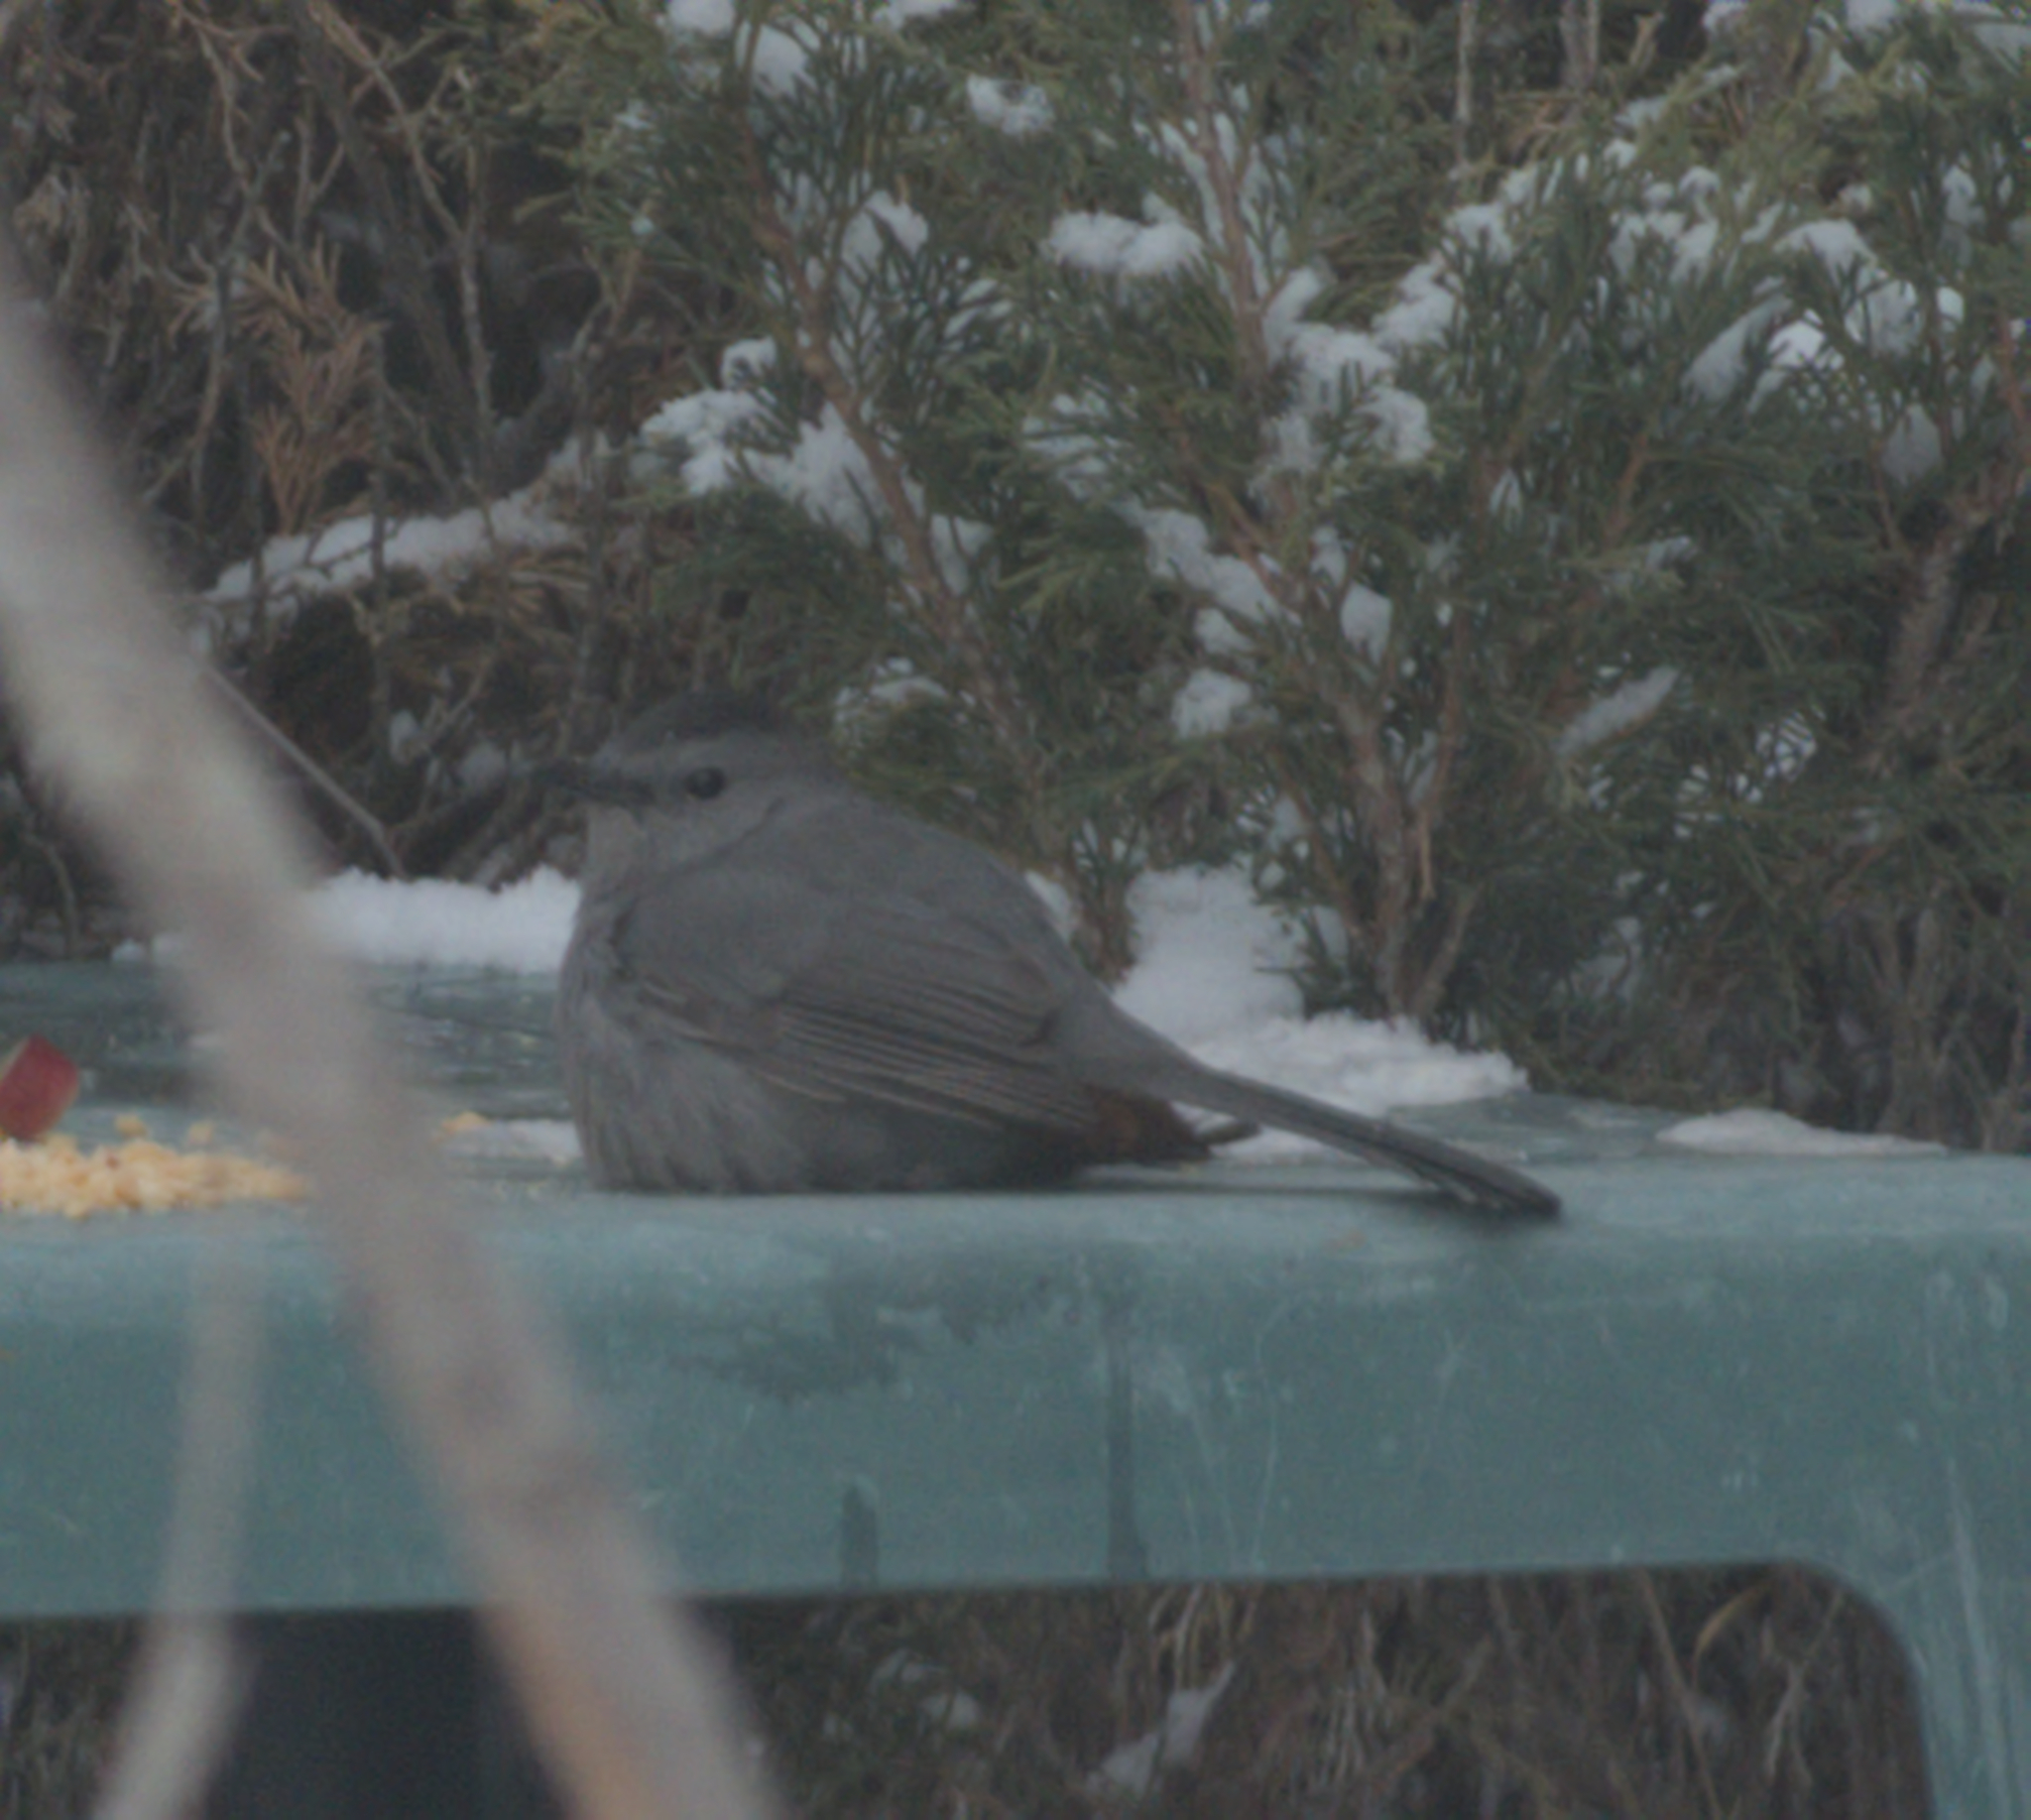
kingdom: Animalia
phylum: Chordata
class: Aves
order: Passeriformes
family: Mimidae
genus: Dumetella
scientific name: Dumetella carolinensis
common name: Gray catbird
